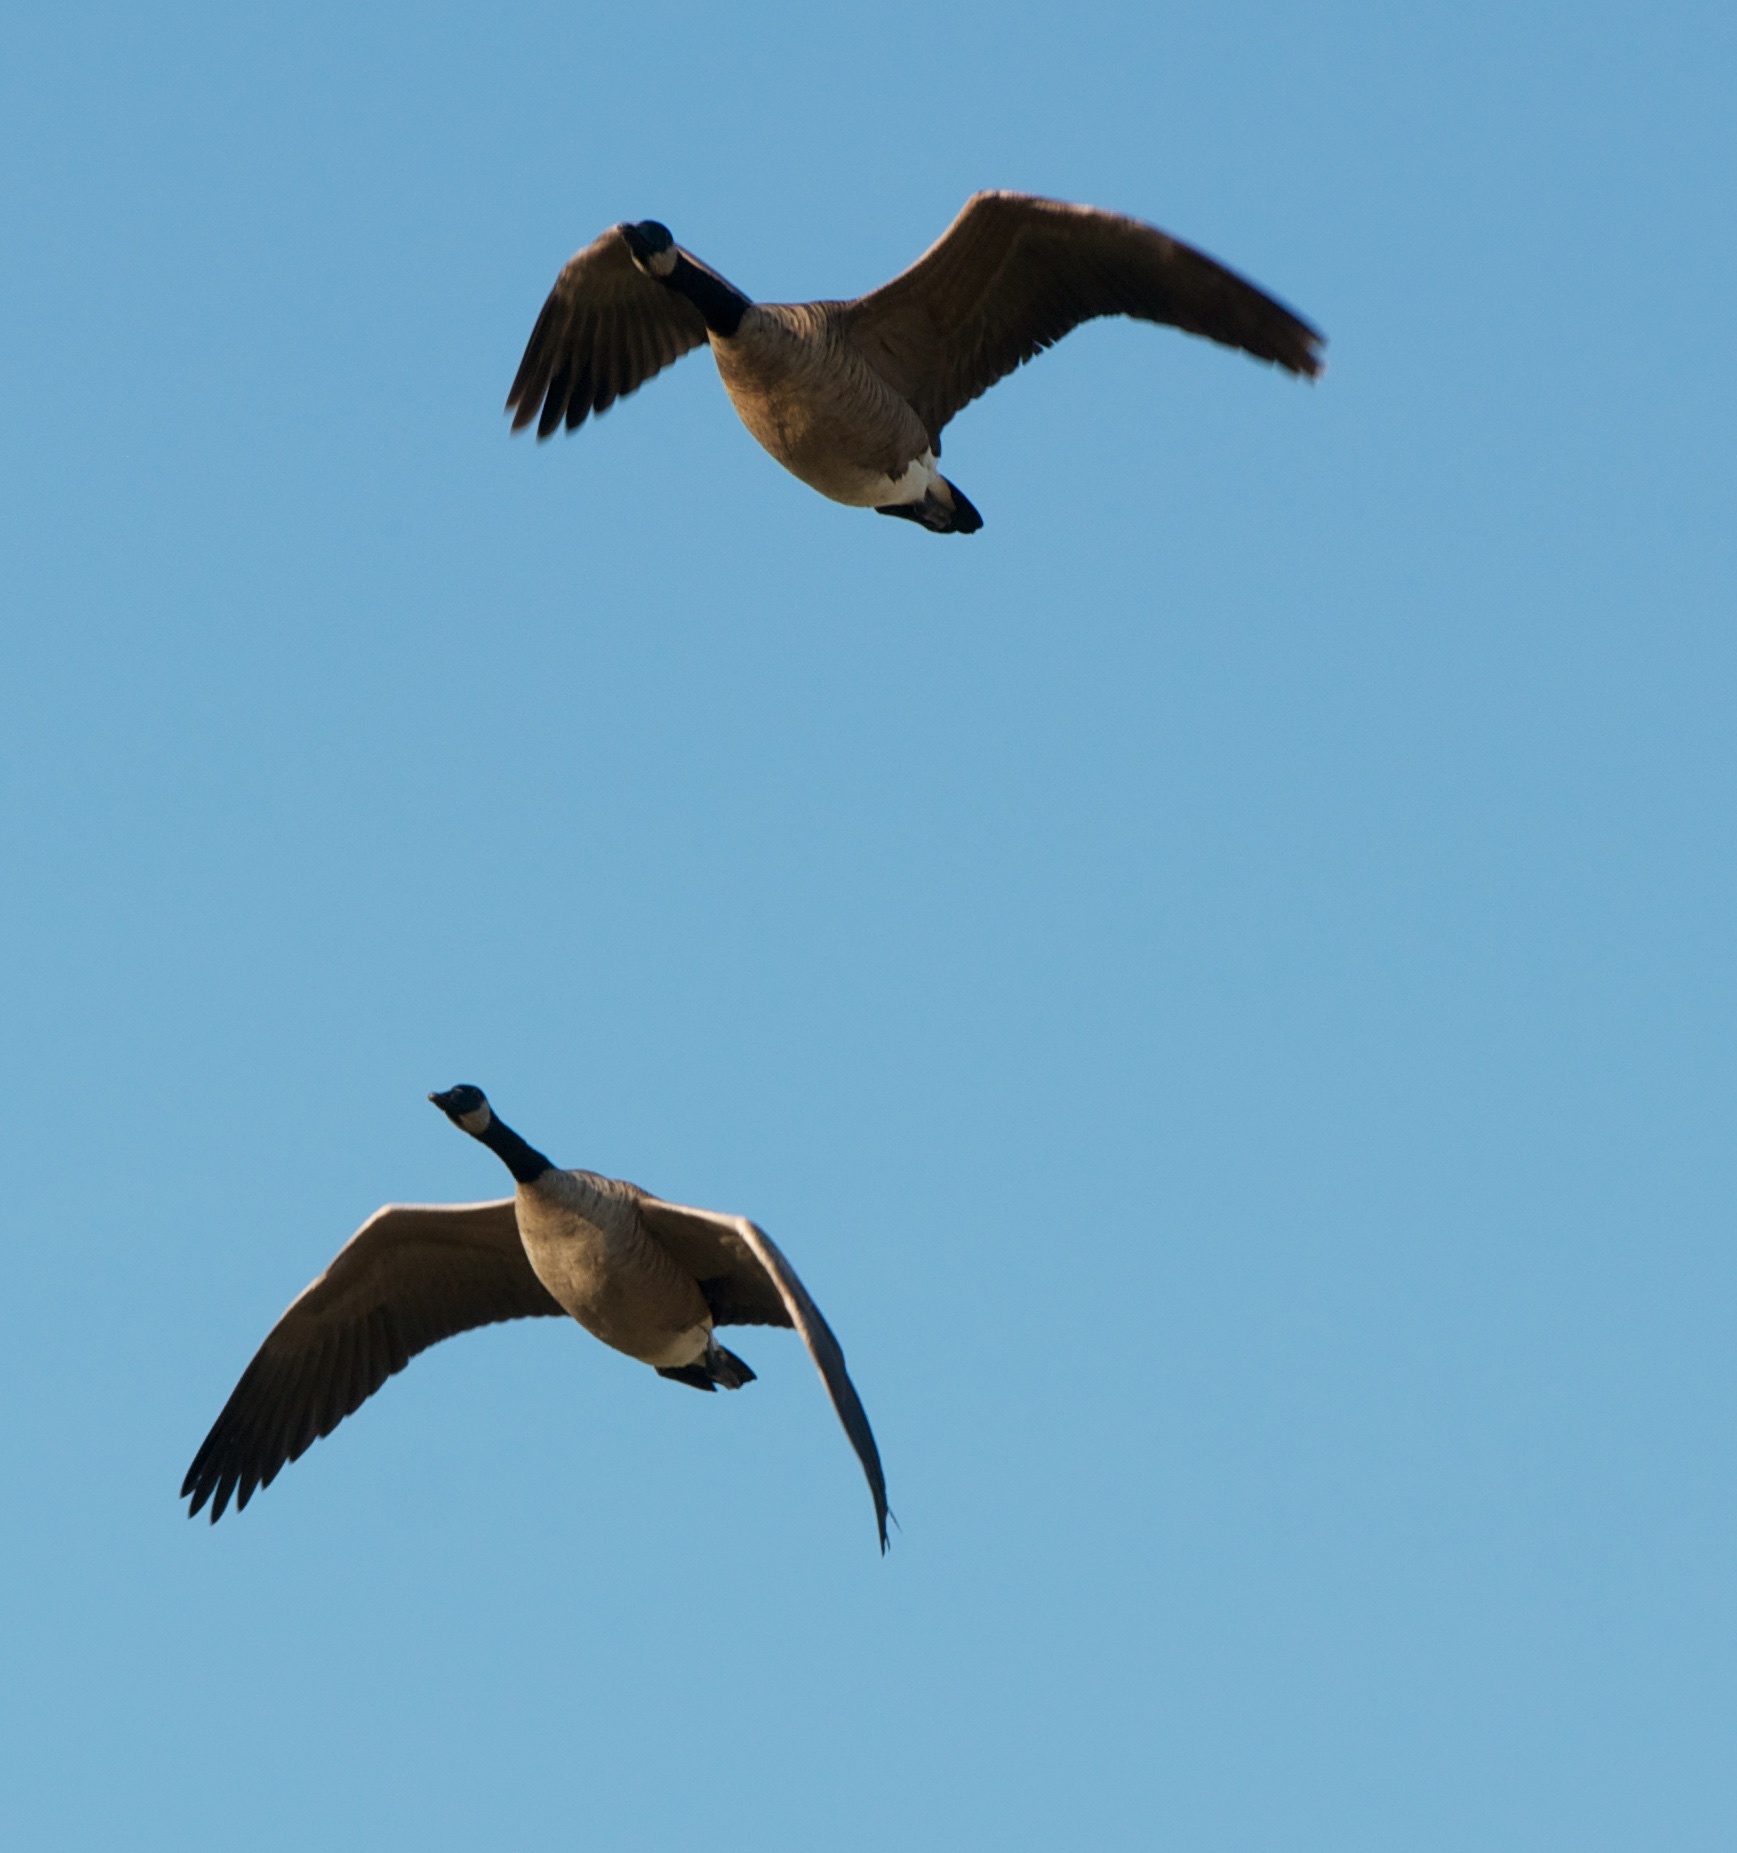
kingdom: Animalia
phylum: Chordata
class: Aves
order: Anseriformes
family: Anatidae
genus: Branta
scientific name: Branta canadensis
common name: Canada goose
